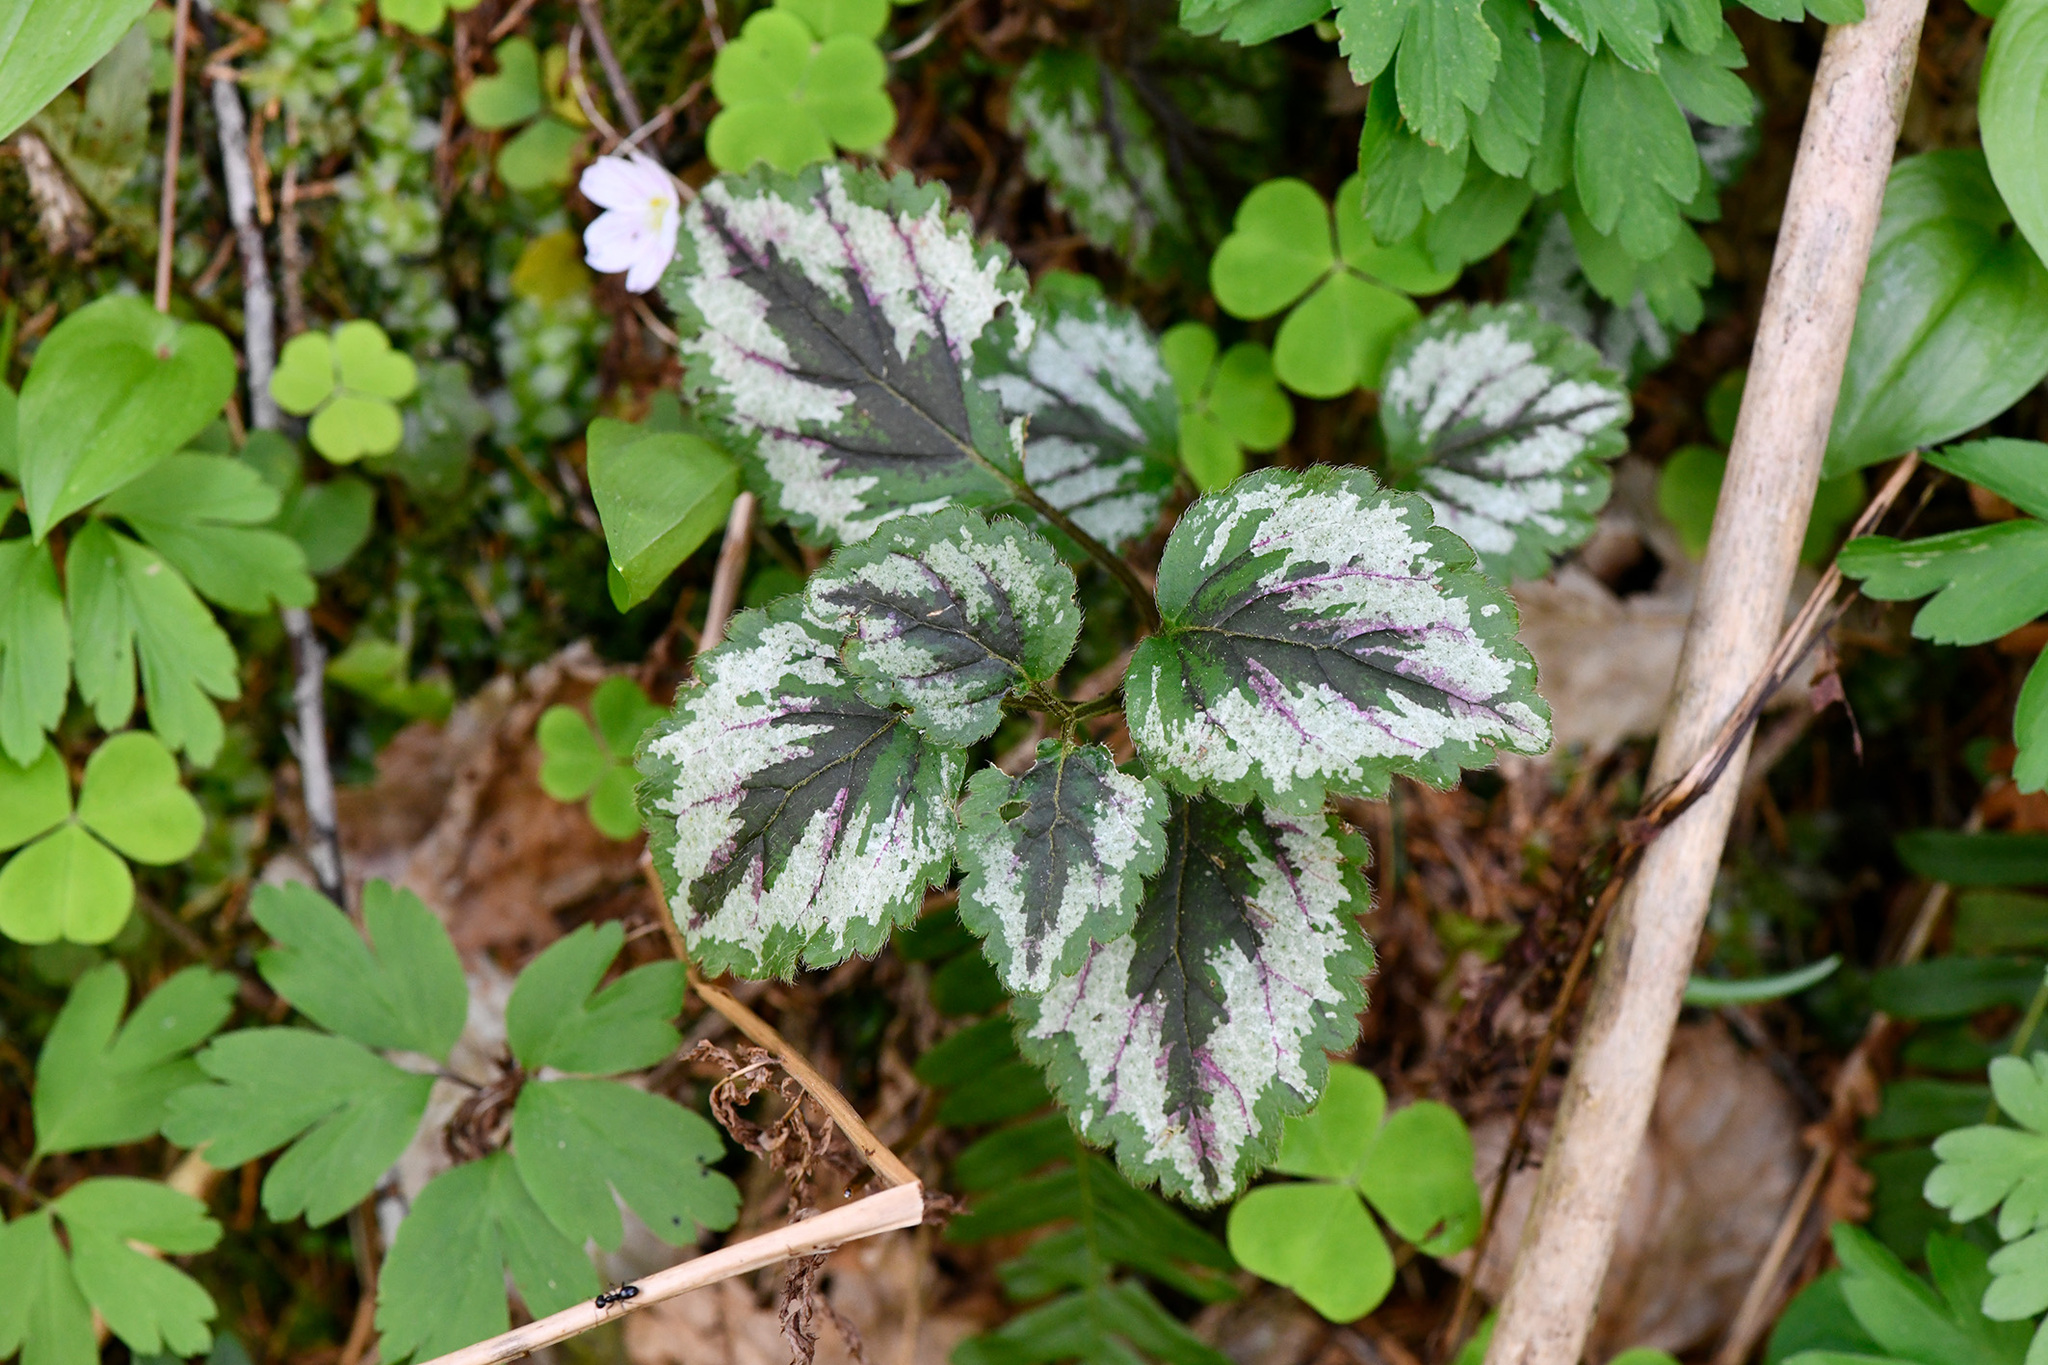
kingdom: Plantae
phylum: Tracheophyta
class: Magnoliopsida
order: Lamiales
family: Lamiaceae
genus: Lamium
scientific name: Lamium galeobdolon
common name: Yellow archangel
